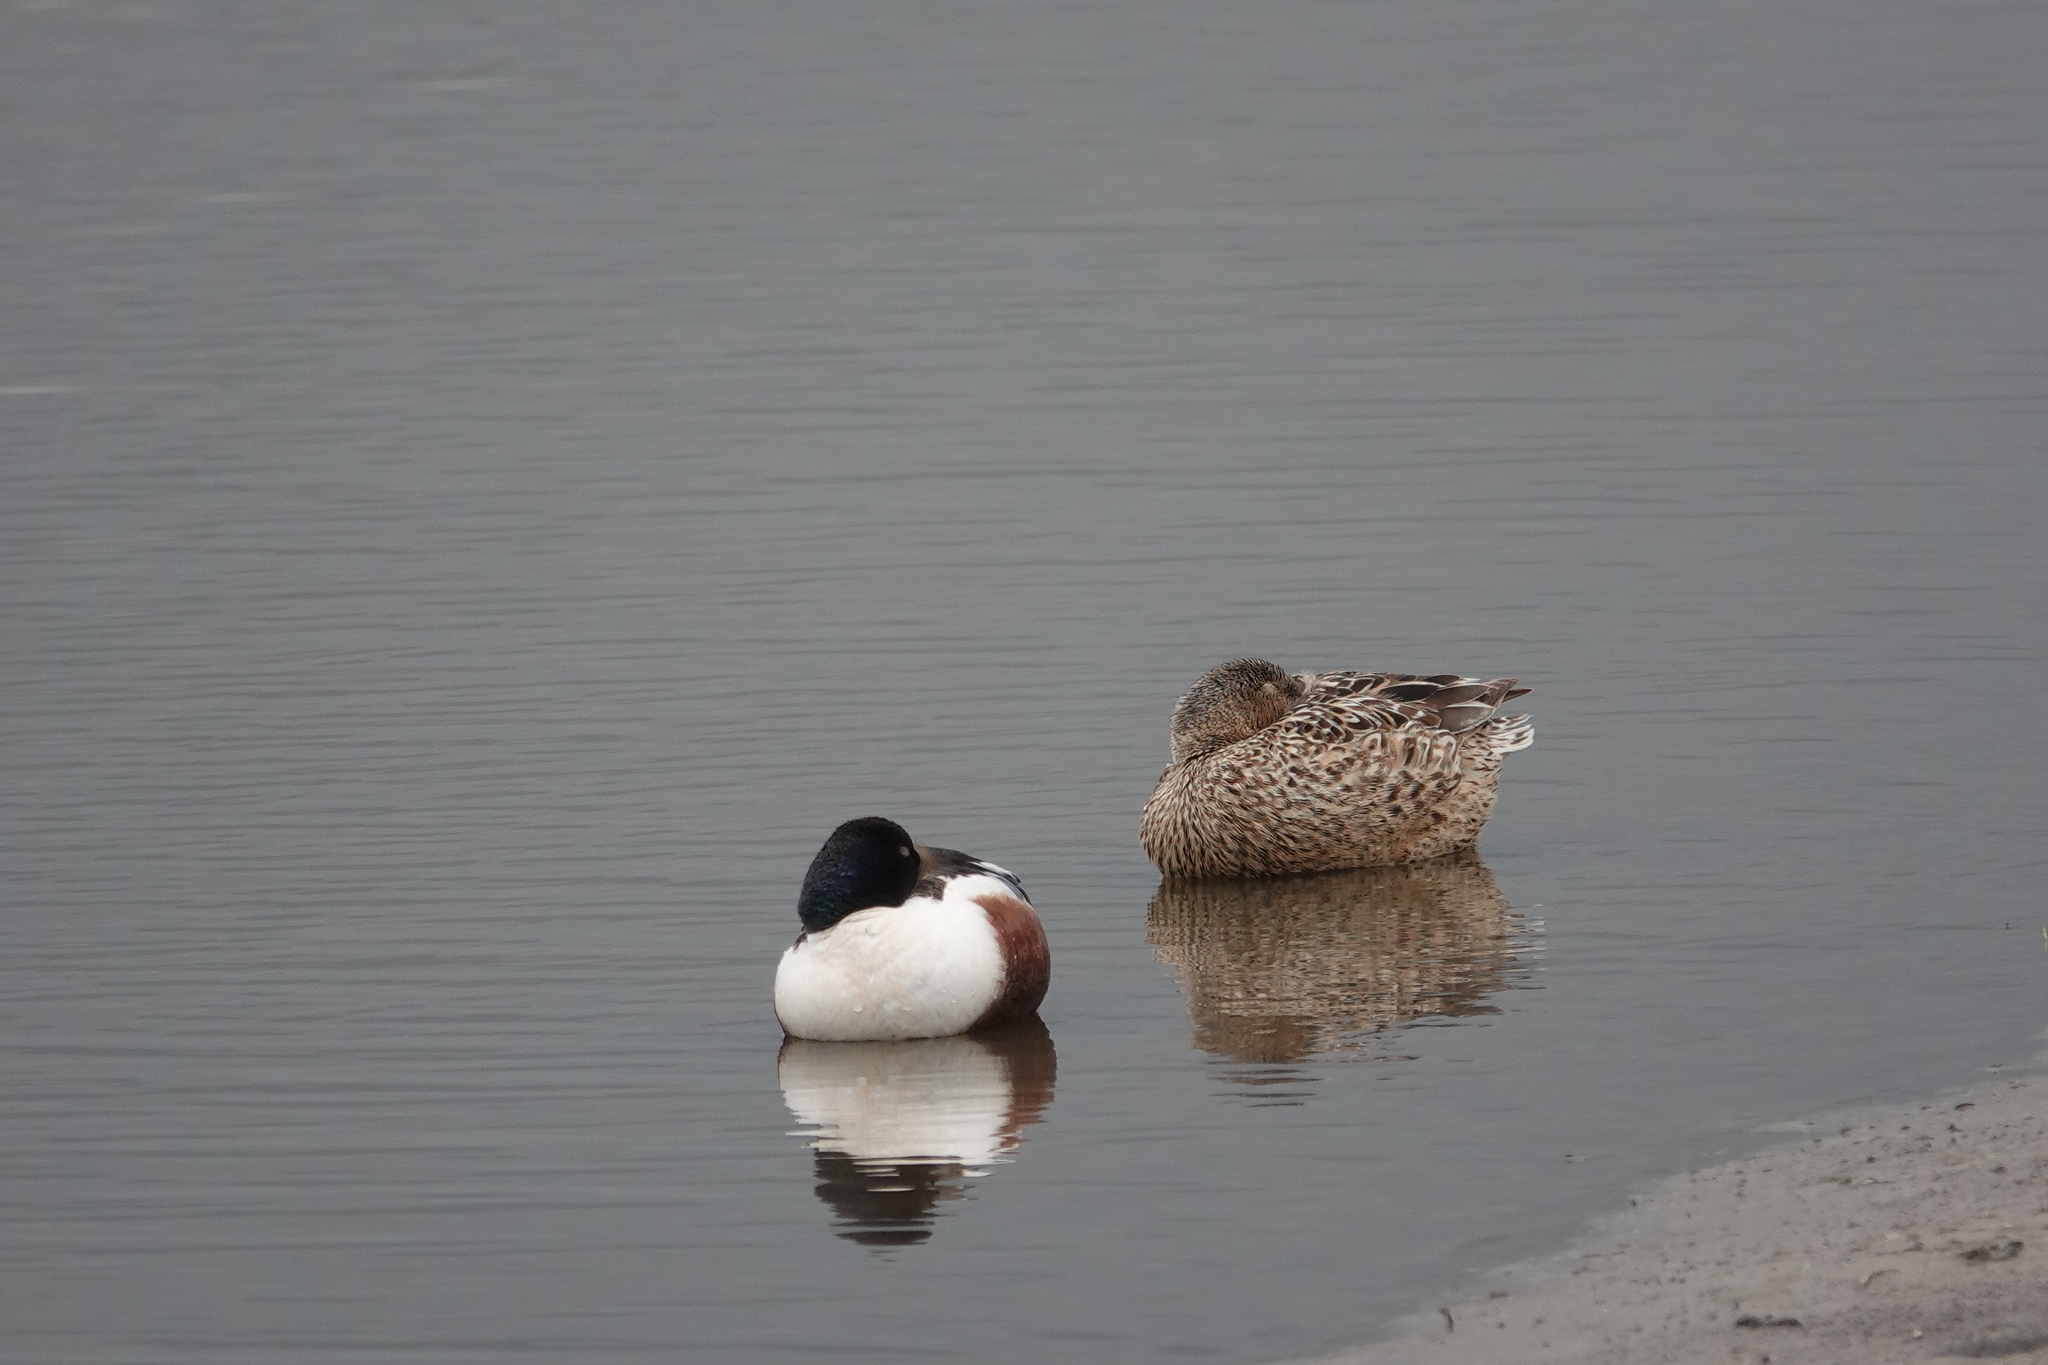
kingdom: Animalia
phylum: Chordata
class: Aves
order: Anseriformes
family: Anatidae
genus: Spatula
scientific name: Spatula clypeata
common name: Northern shoveler
